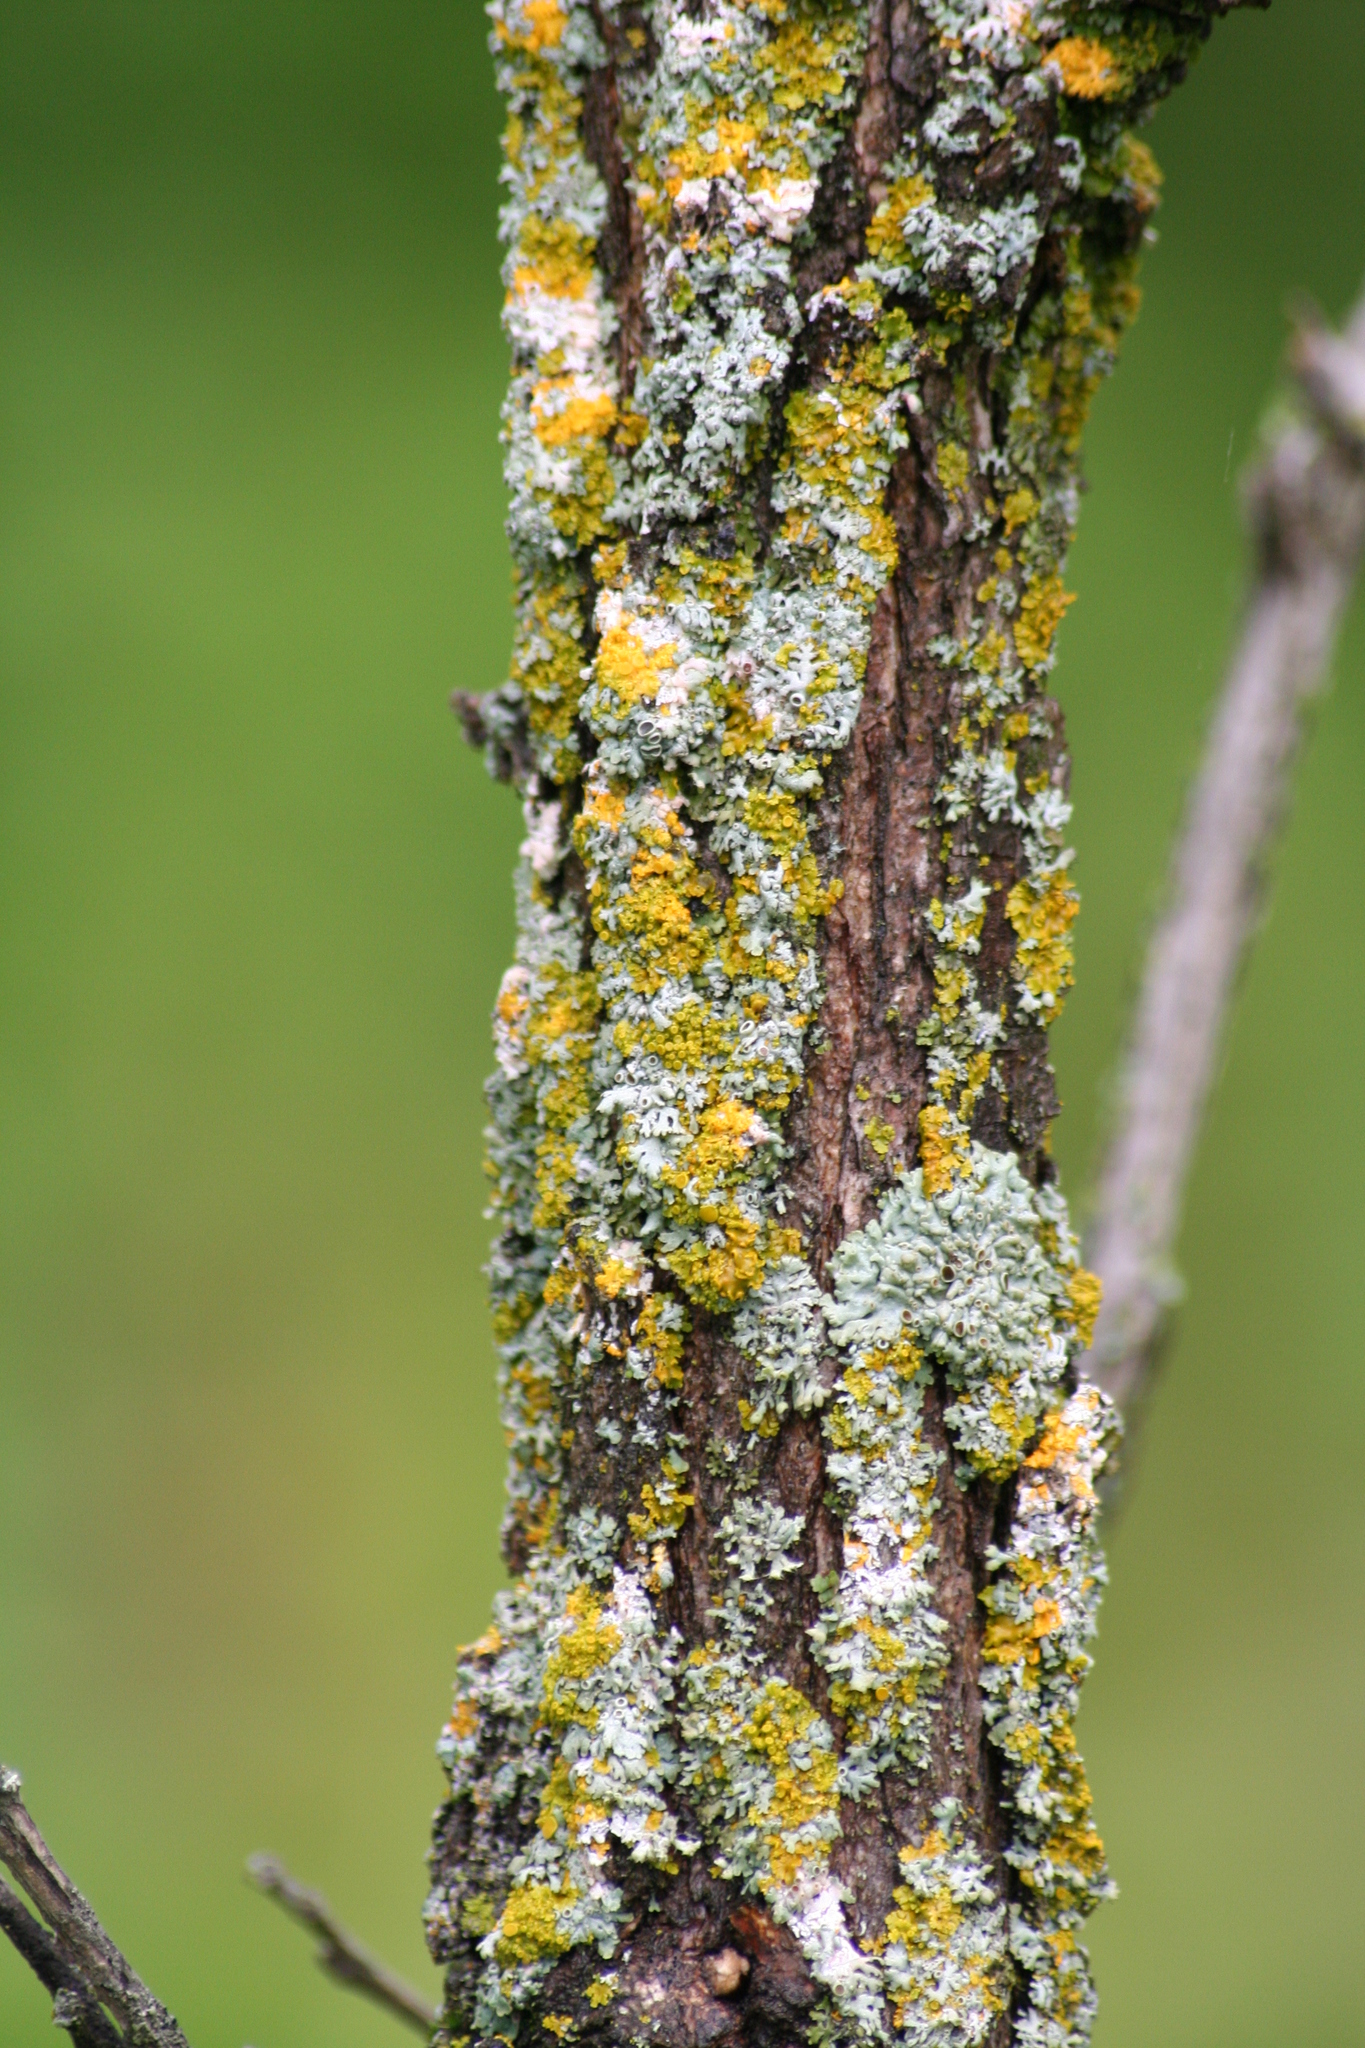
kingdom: Fungi
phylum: Ascomycota
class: Candelariomycetes
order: Candelariales
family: Candelariaceae
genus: Candelaria
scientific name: Candelaria concolor
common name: Candleflame lichen
